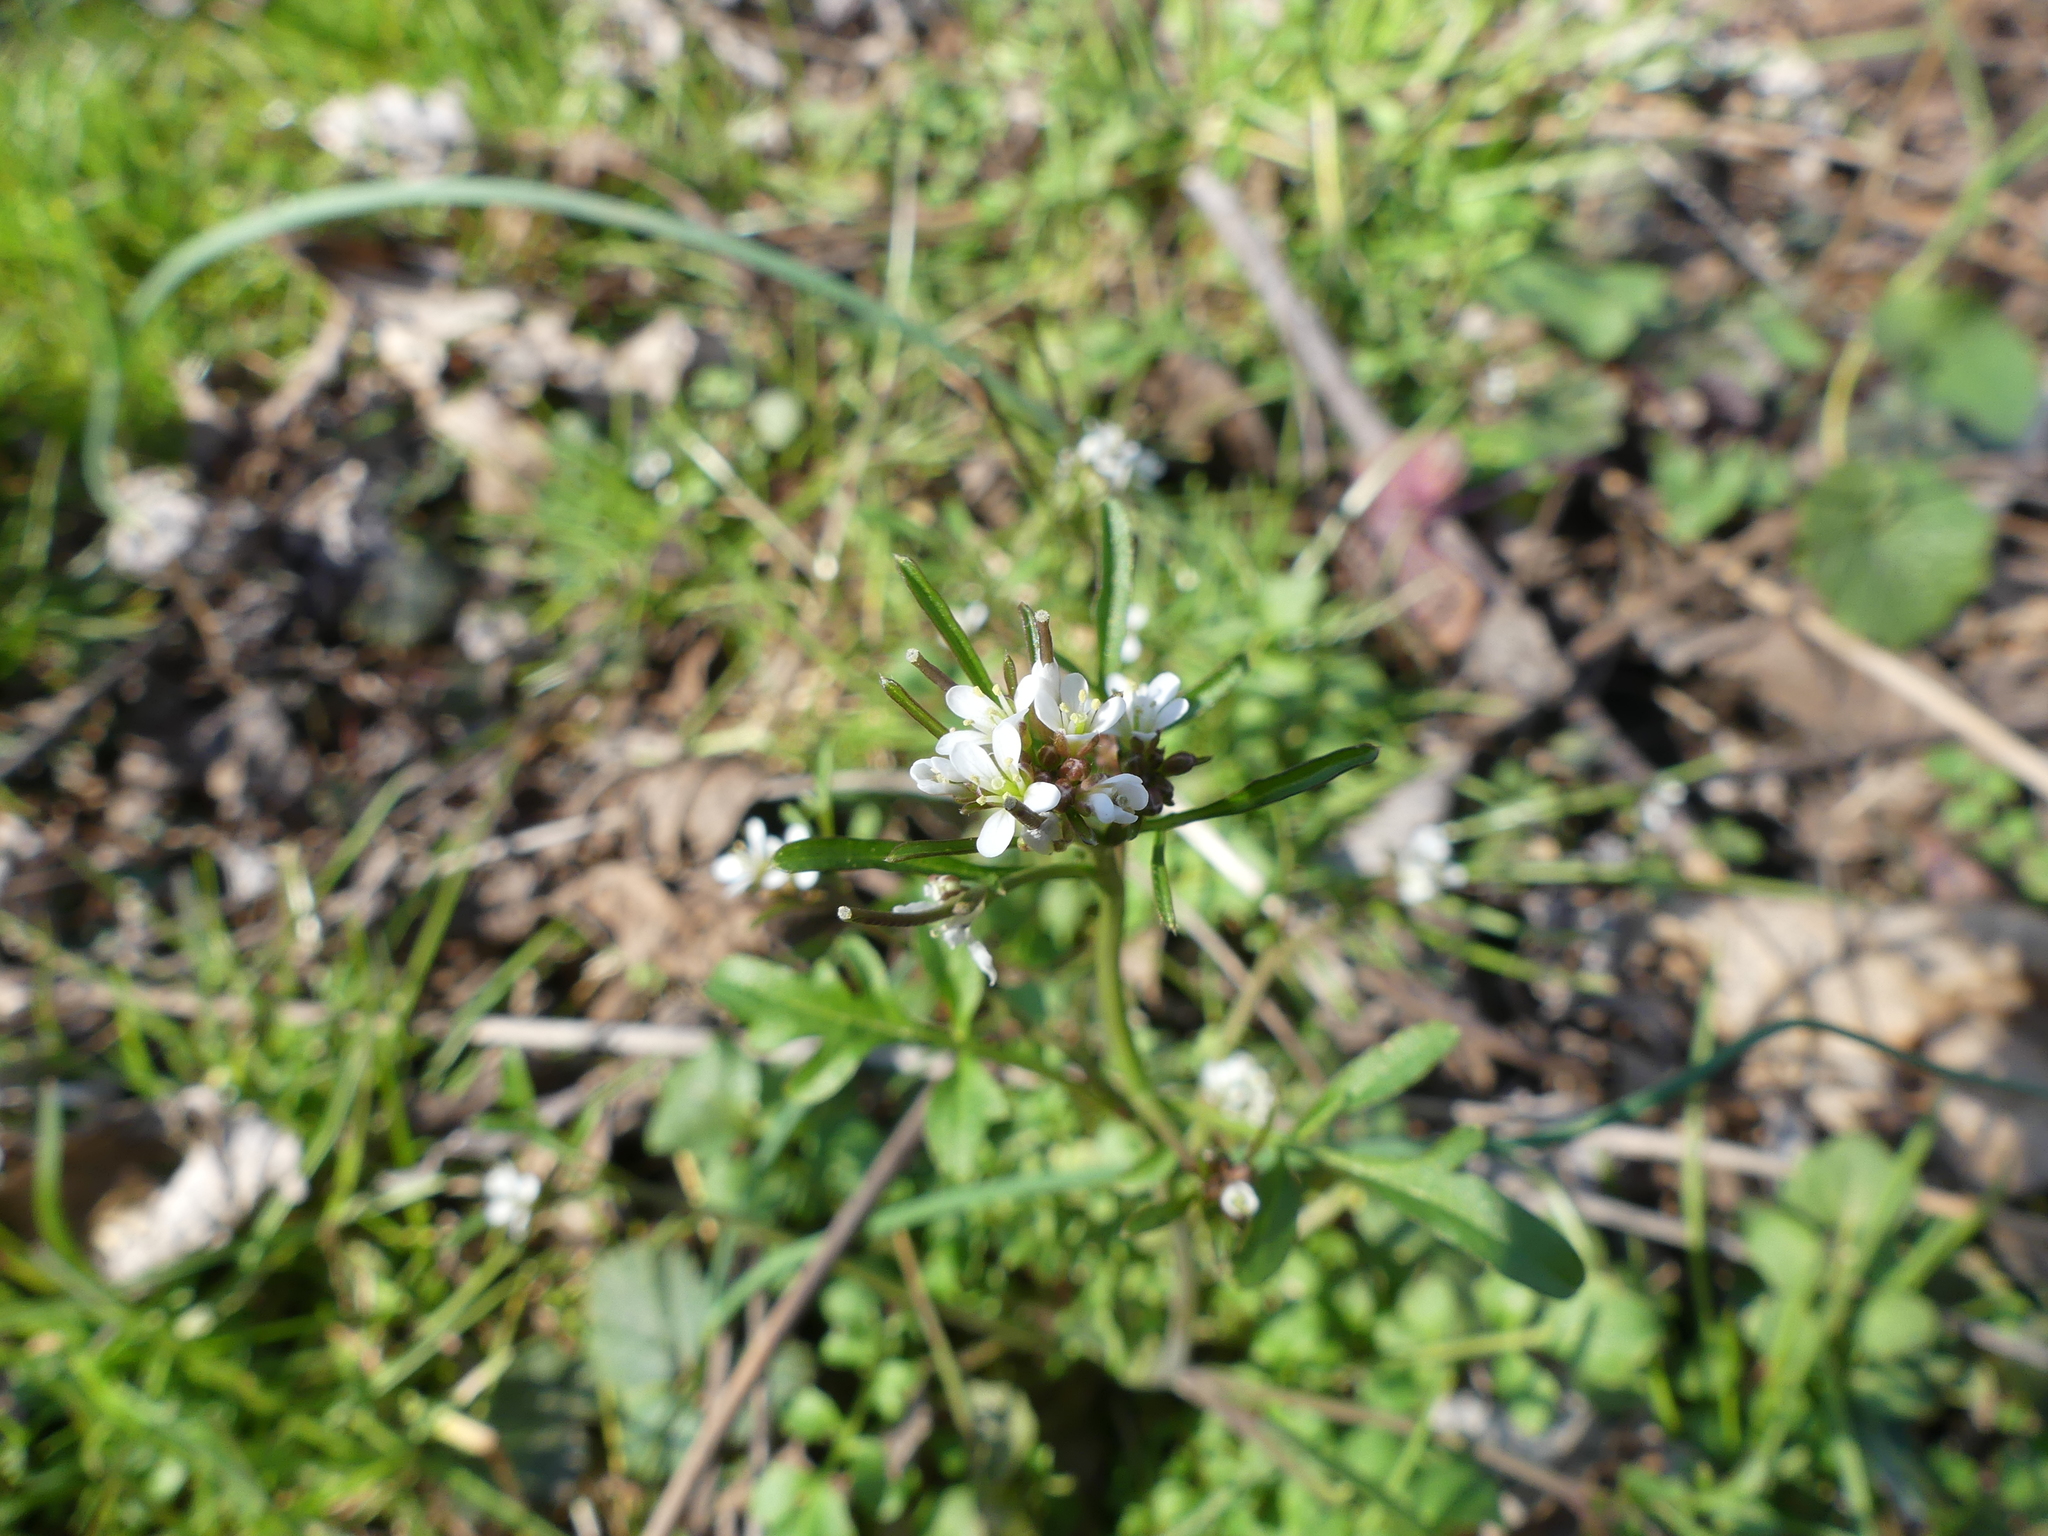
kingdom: Plantae
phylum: Tracheophyta
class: Magnoliopsida
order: Brassicales
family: Brassicaceae
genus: Cardamine
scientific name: Cardamine hirsuta
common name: Hairy bittercress
